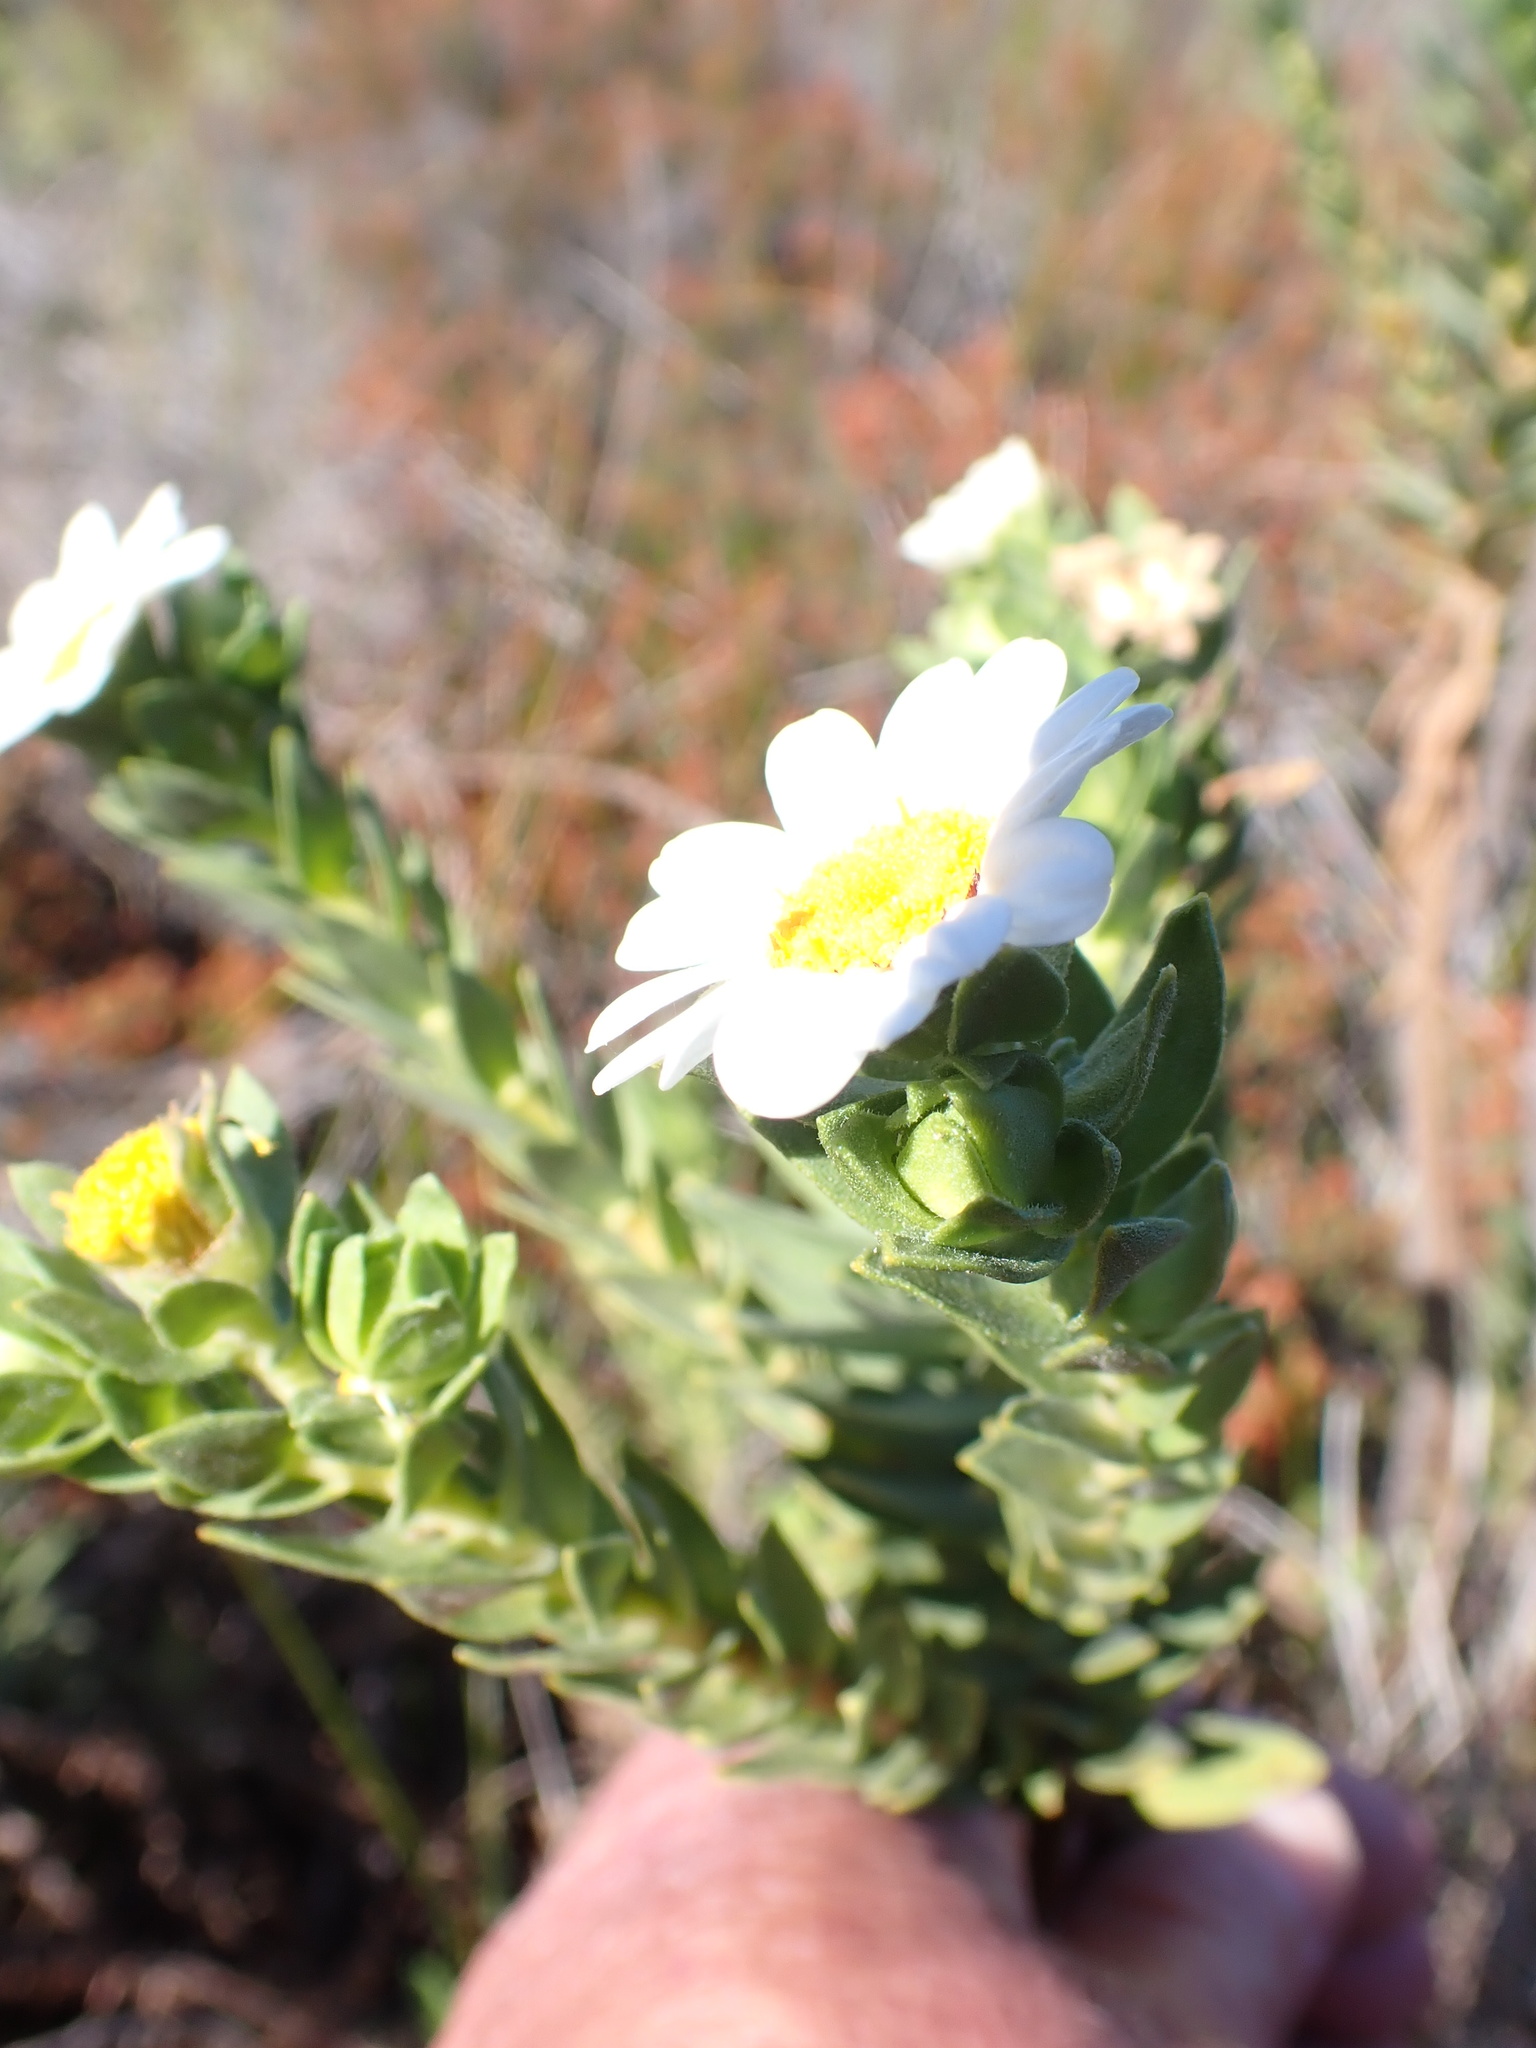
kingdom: Plantae
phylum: Tracheophyta
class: Magnoliopsida
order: Asterales
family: Asteraceae
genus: Osmitopsis
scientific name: Osmitopsis asteriscoides
